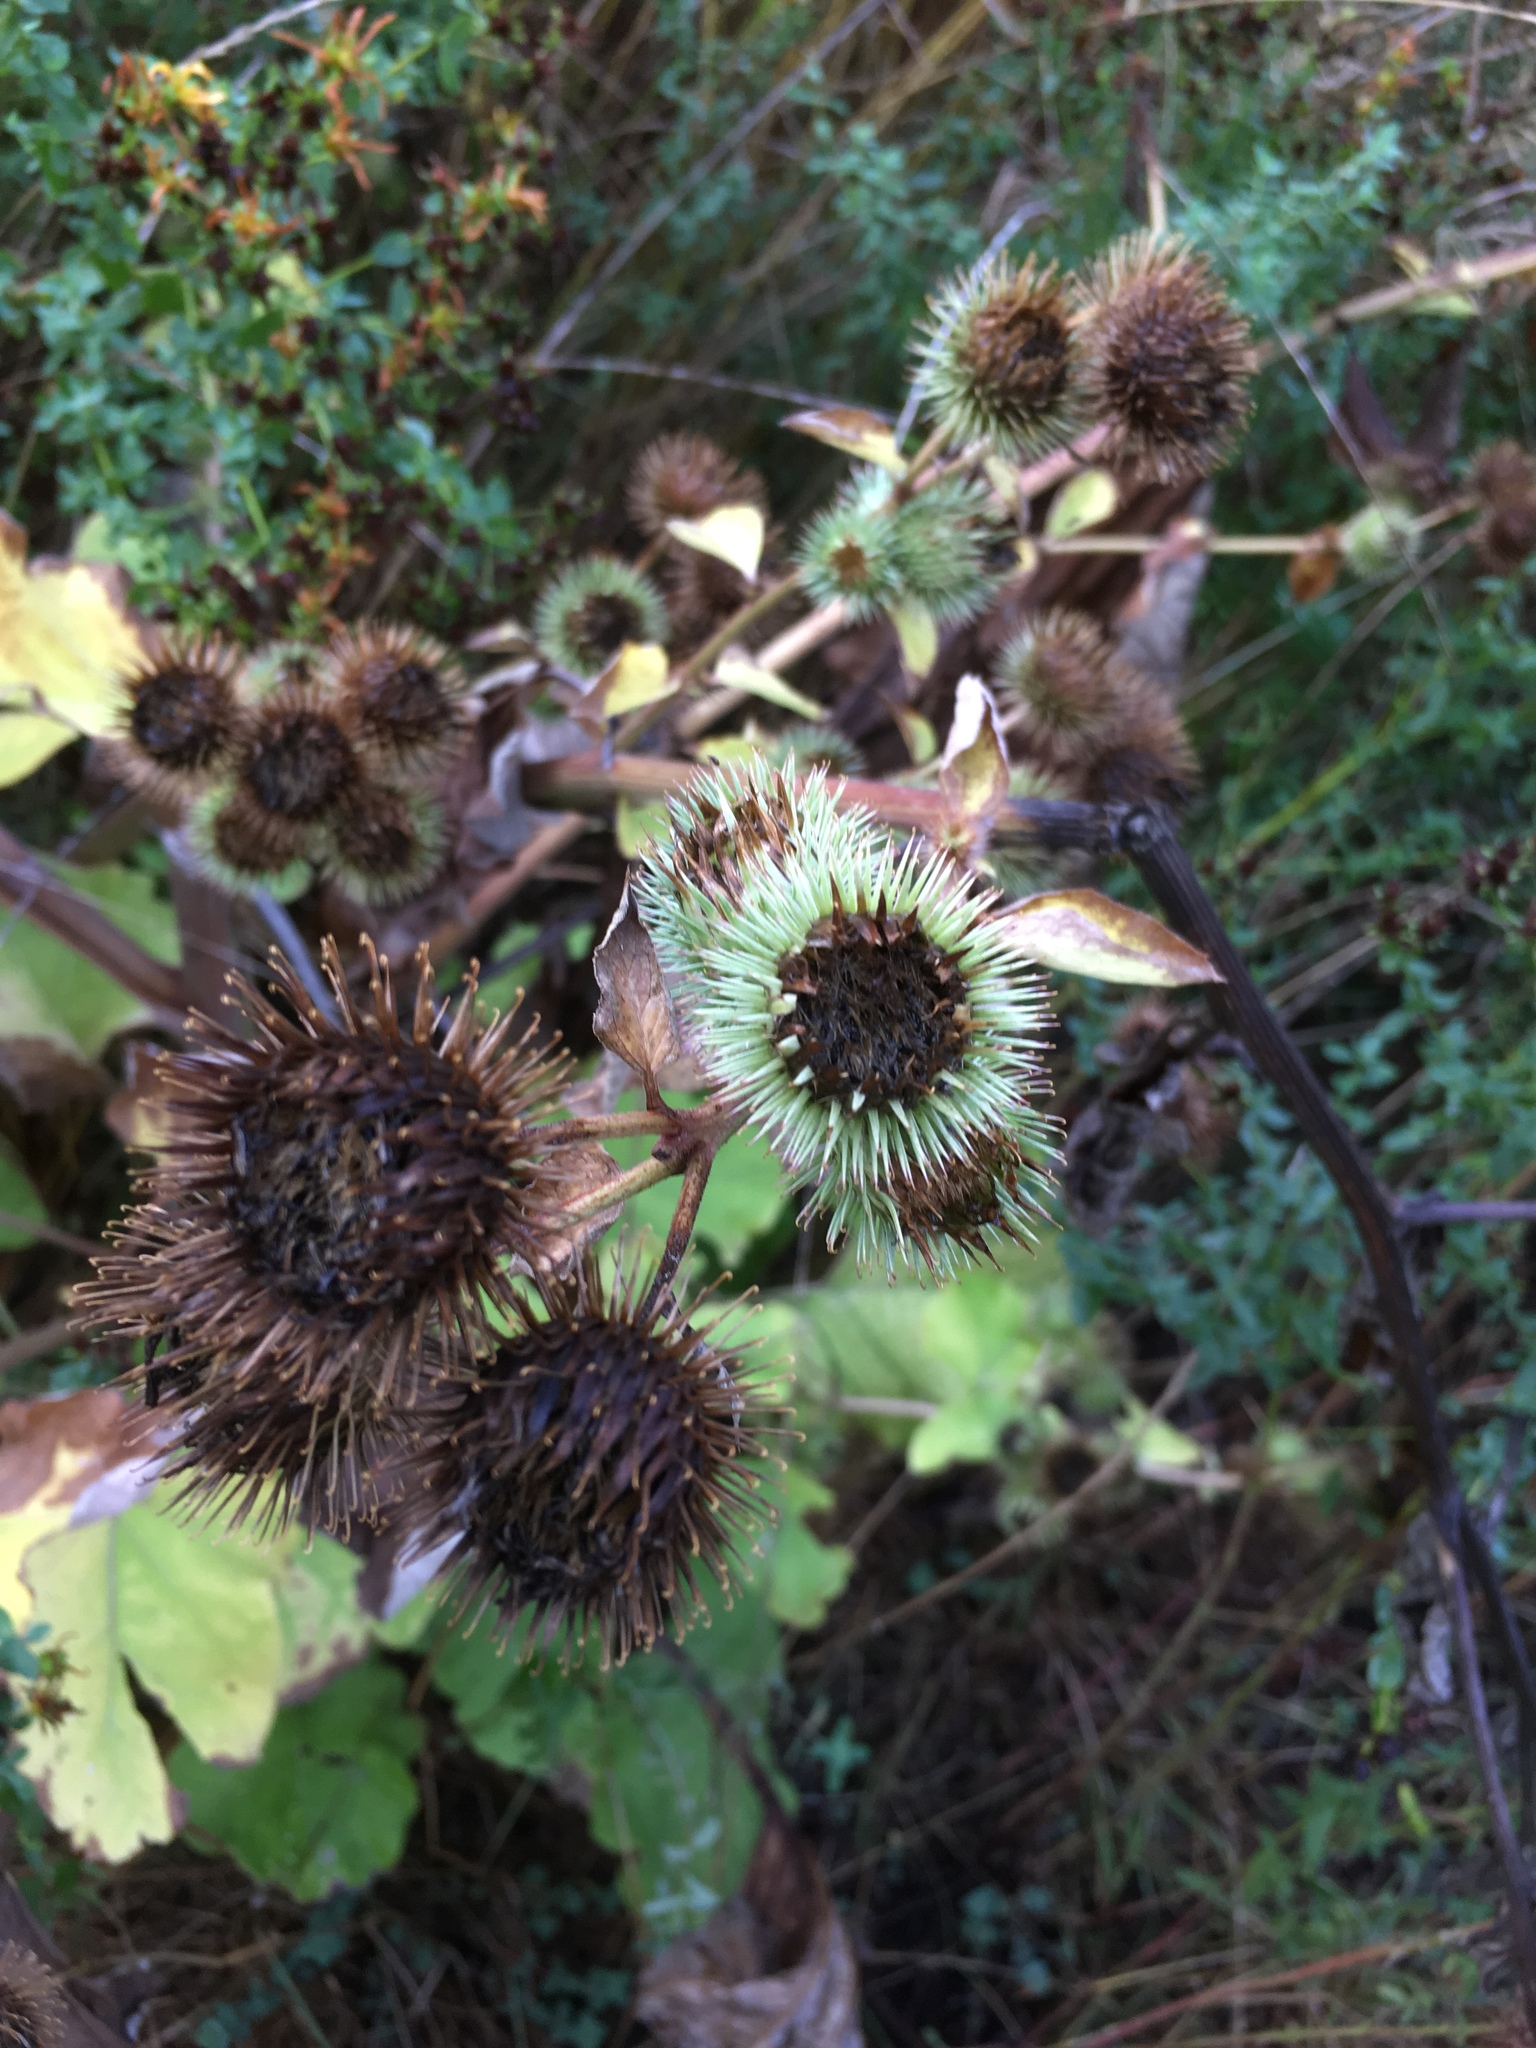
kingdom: Plantae
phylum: Tracheophyta
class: Magnoliopsida
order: Asterales
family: Asteraceae
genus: Arctium
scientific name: Arctium lappa
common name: Greater burdock
